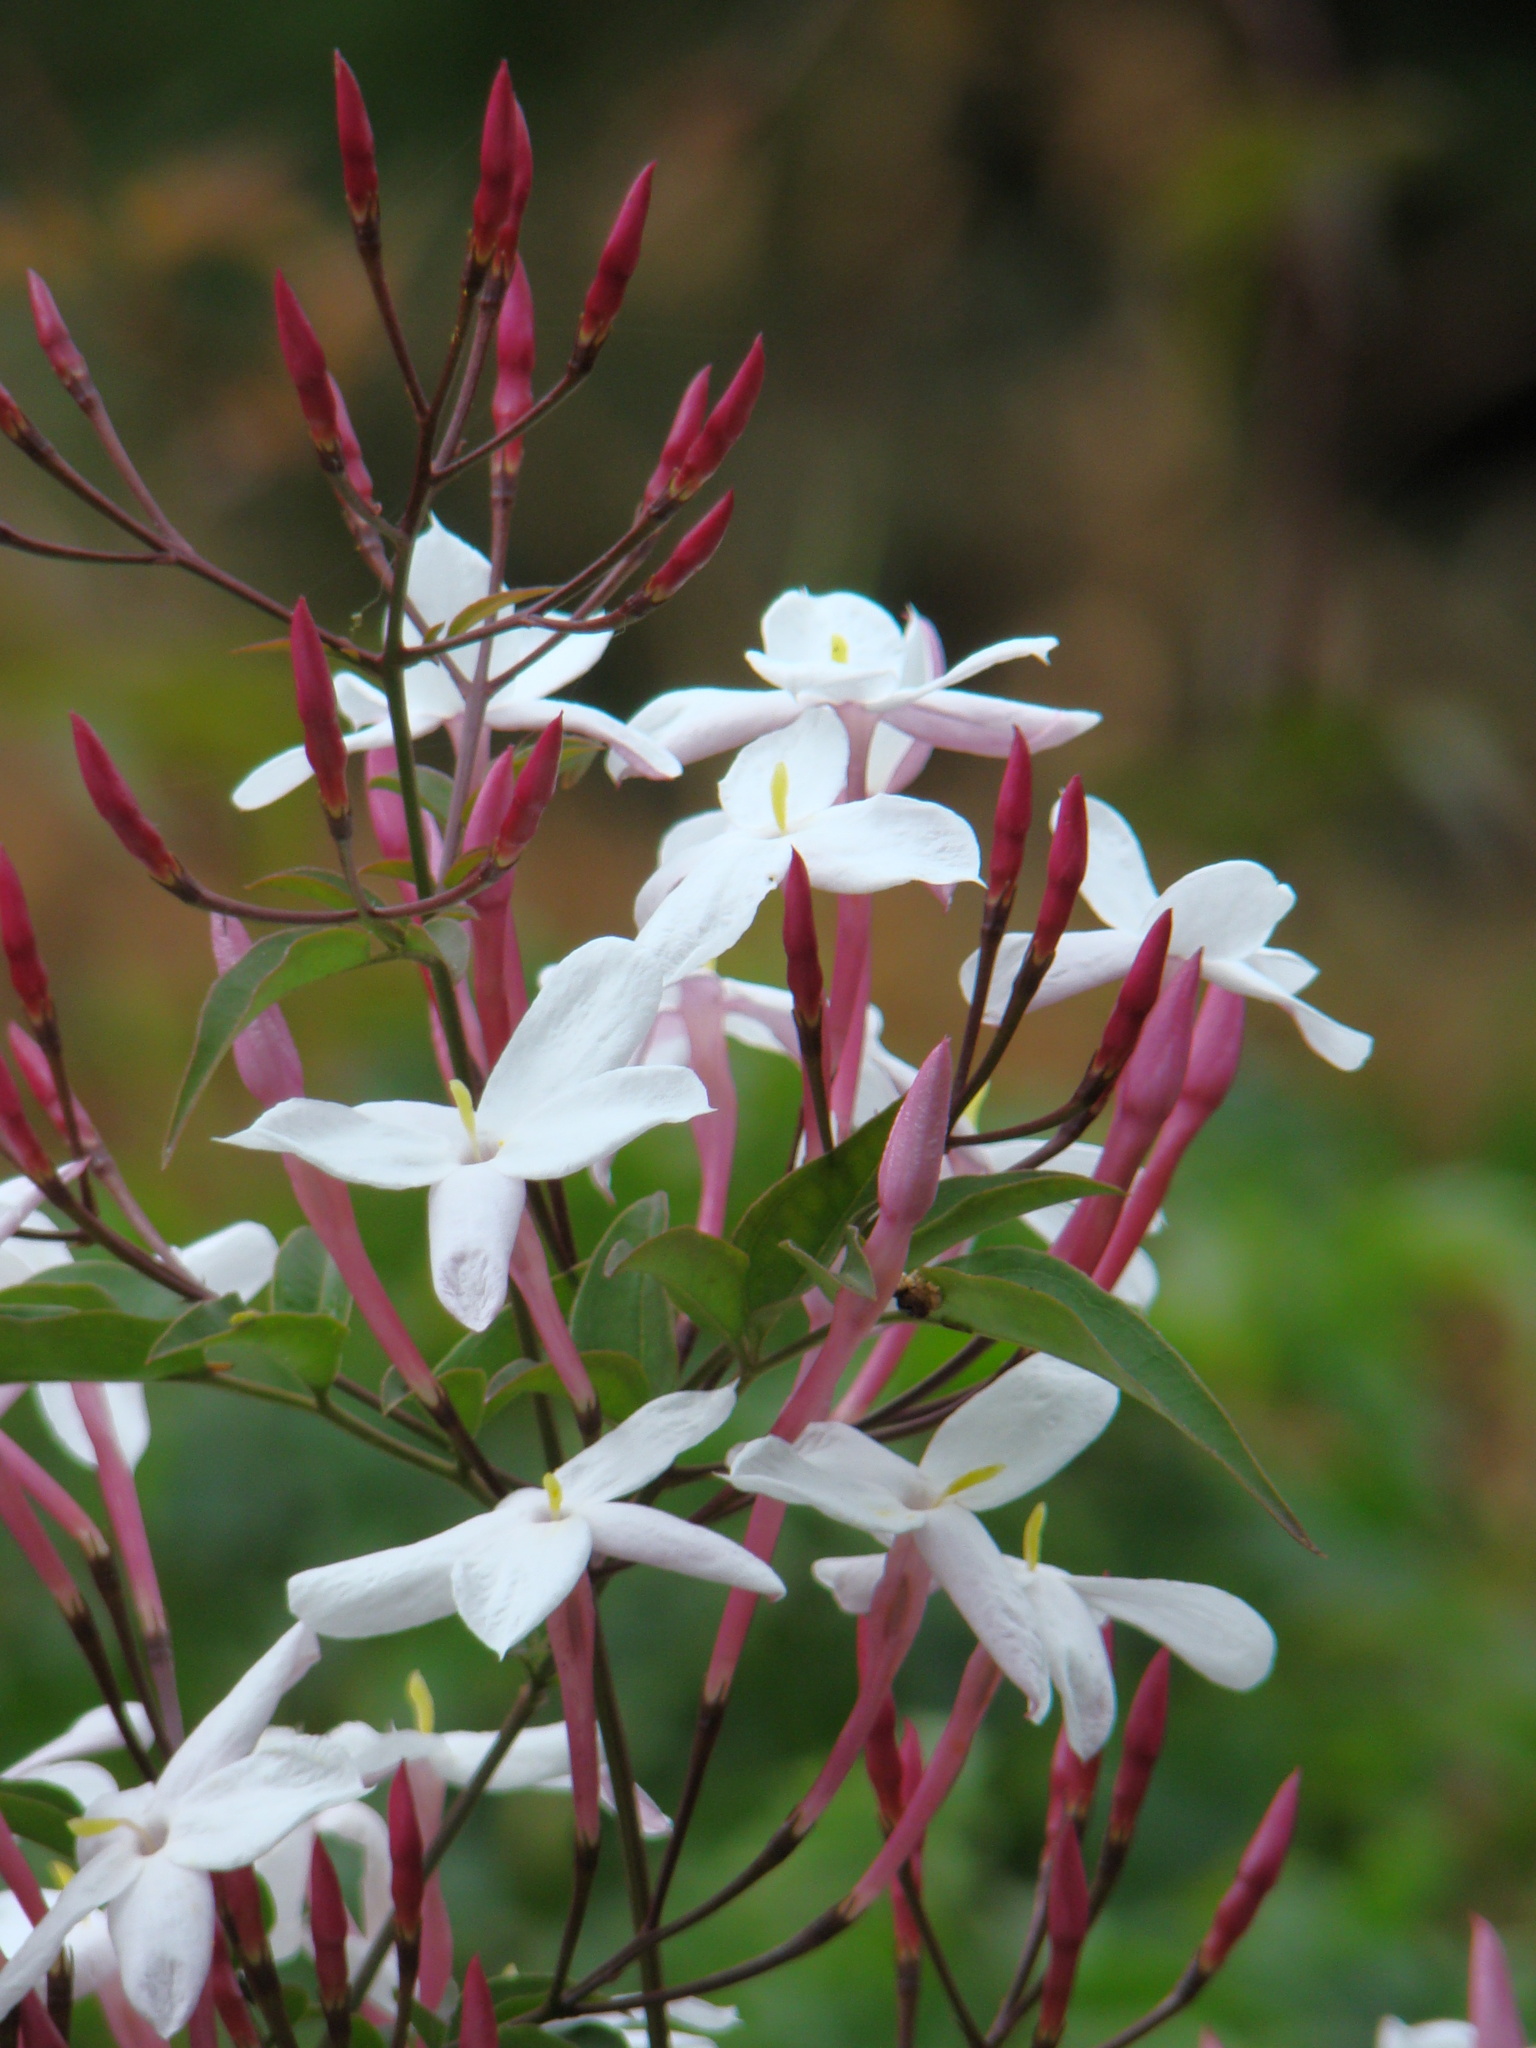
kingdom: Plantae
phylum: Tracheophyta
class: Magnoliopsida
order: Lamiales
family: Oleaceae
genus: Jasminum
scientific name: Jasminum polyanthum
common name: Pink jasmine
